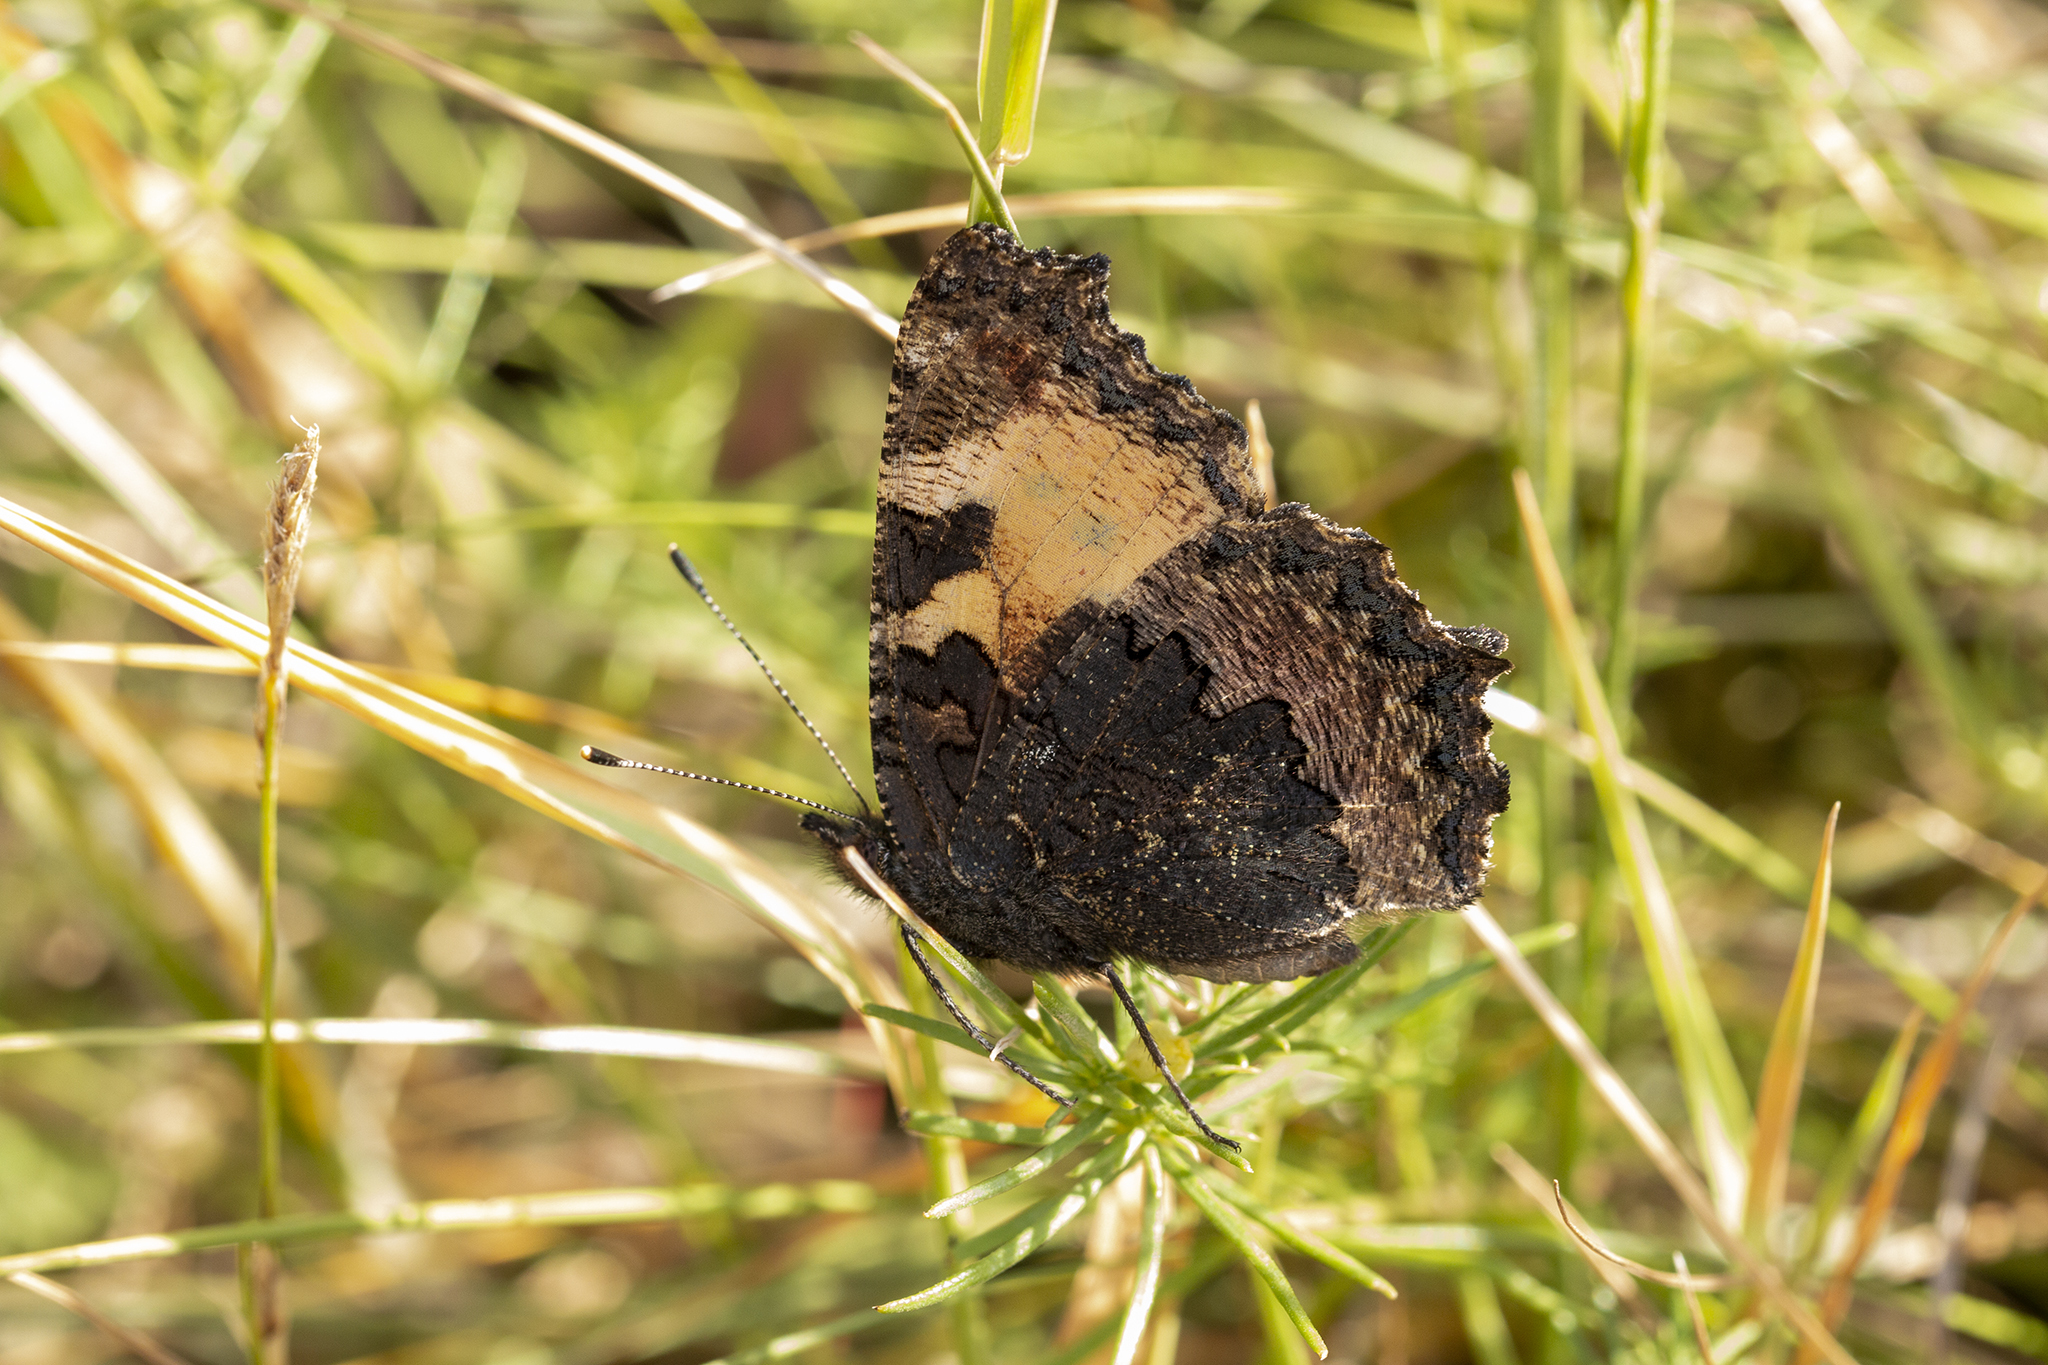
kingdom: Animalia
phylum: Arthropoda
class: Insecta
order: Lepidoptera
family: Nymphalidae
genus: Aglais
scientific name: Aglais urticae
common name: Small tortoiseshell
